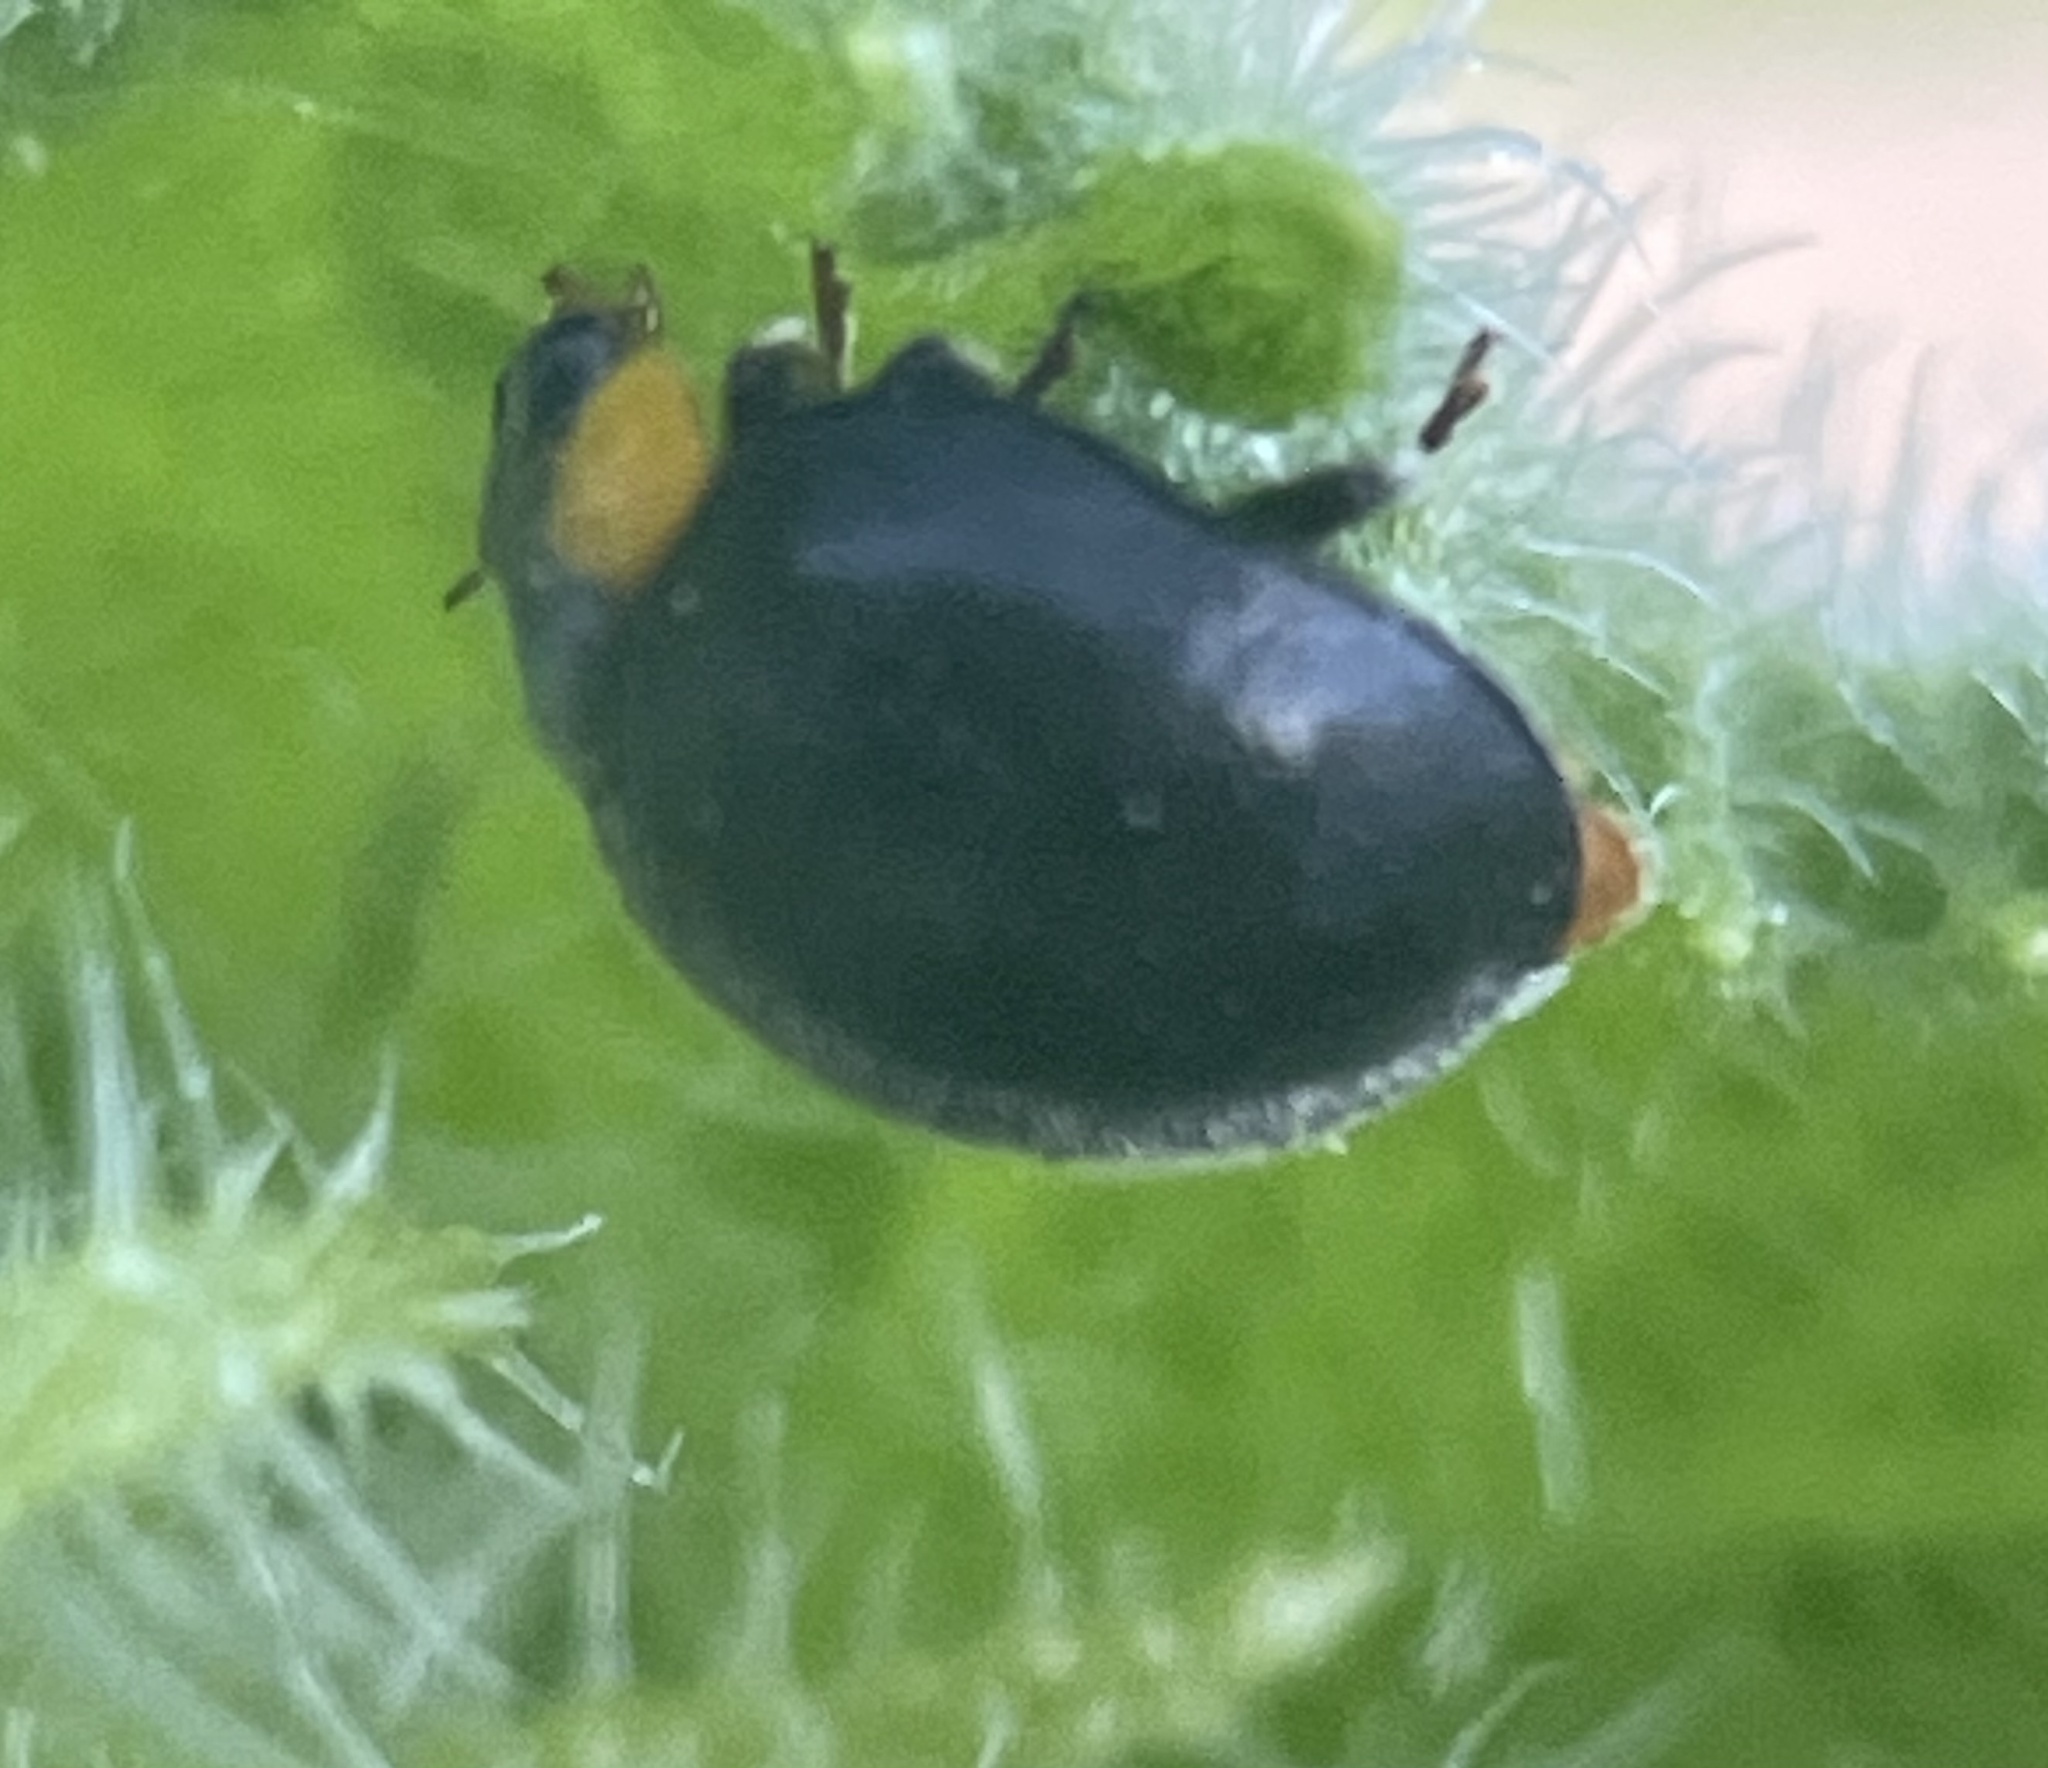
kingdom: Animalia
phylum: Arthropoda
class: Insecta
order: Coleoptera
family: Coccinellidae
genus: Scymnodes
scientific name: Scymnodes lividigaster
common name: Yellowshouldered lady beetle
